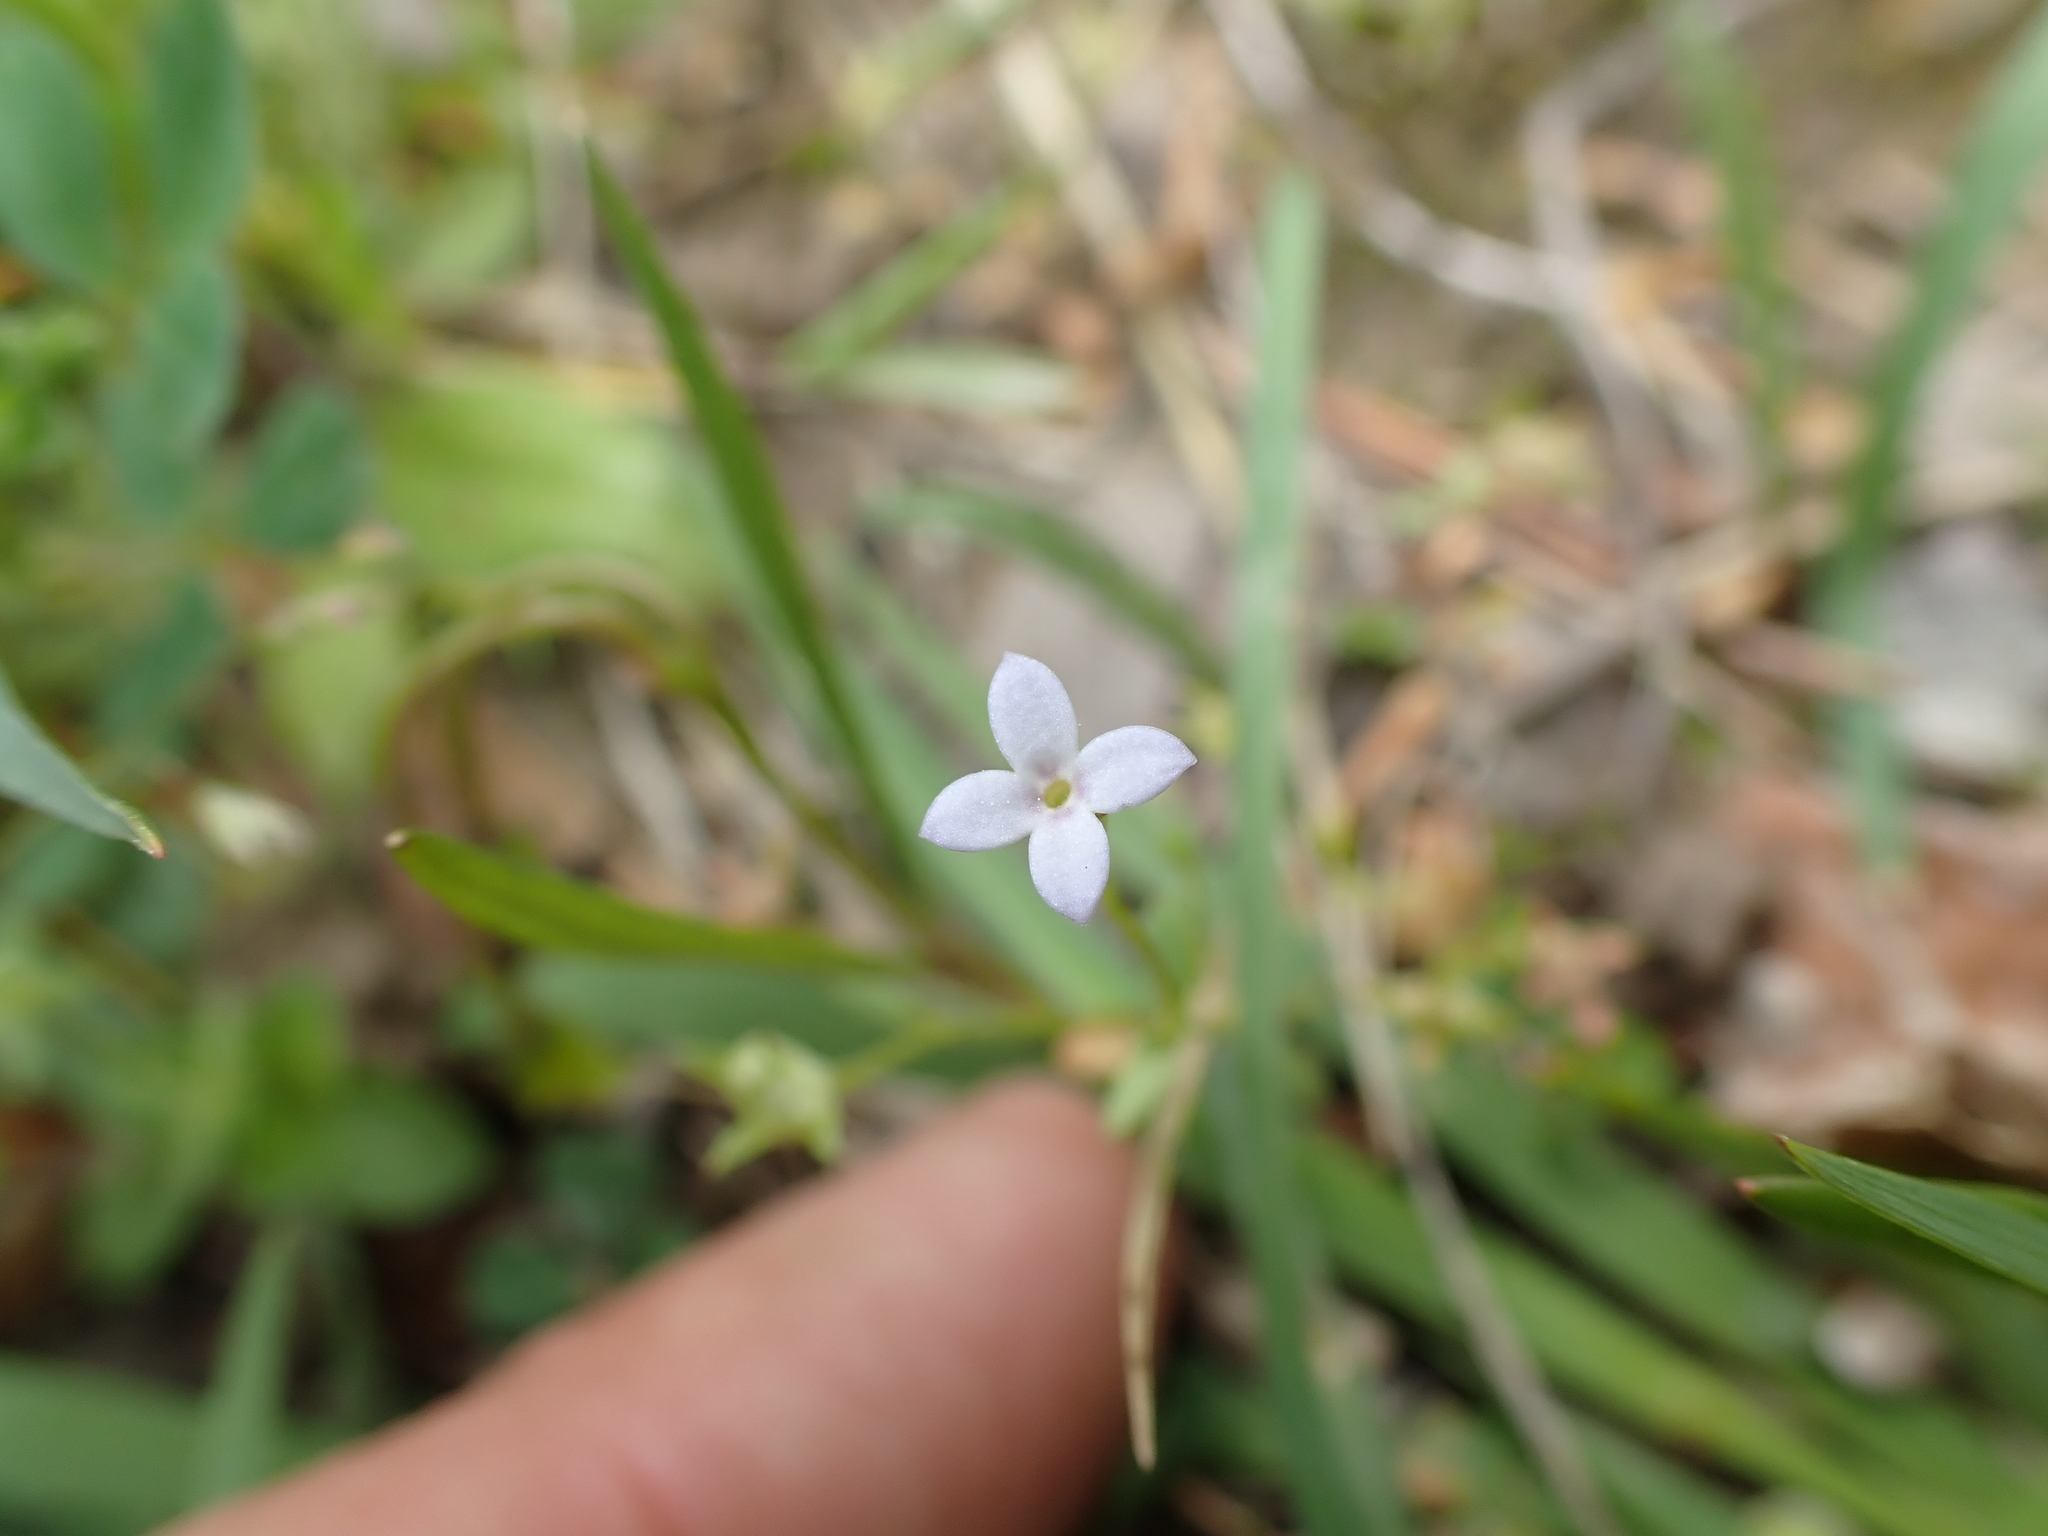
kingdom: Plantae
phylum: Tracheophyta
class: Magnoliopsida
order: Gentianales
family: Rubiaceae
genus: Houstonia
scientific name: Houstonia pusilla
